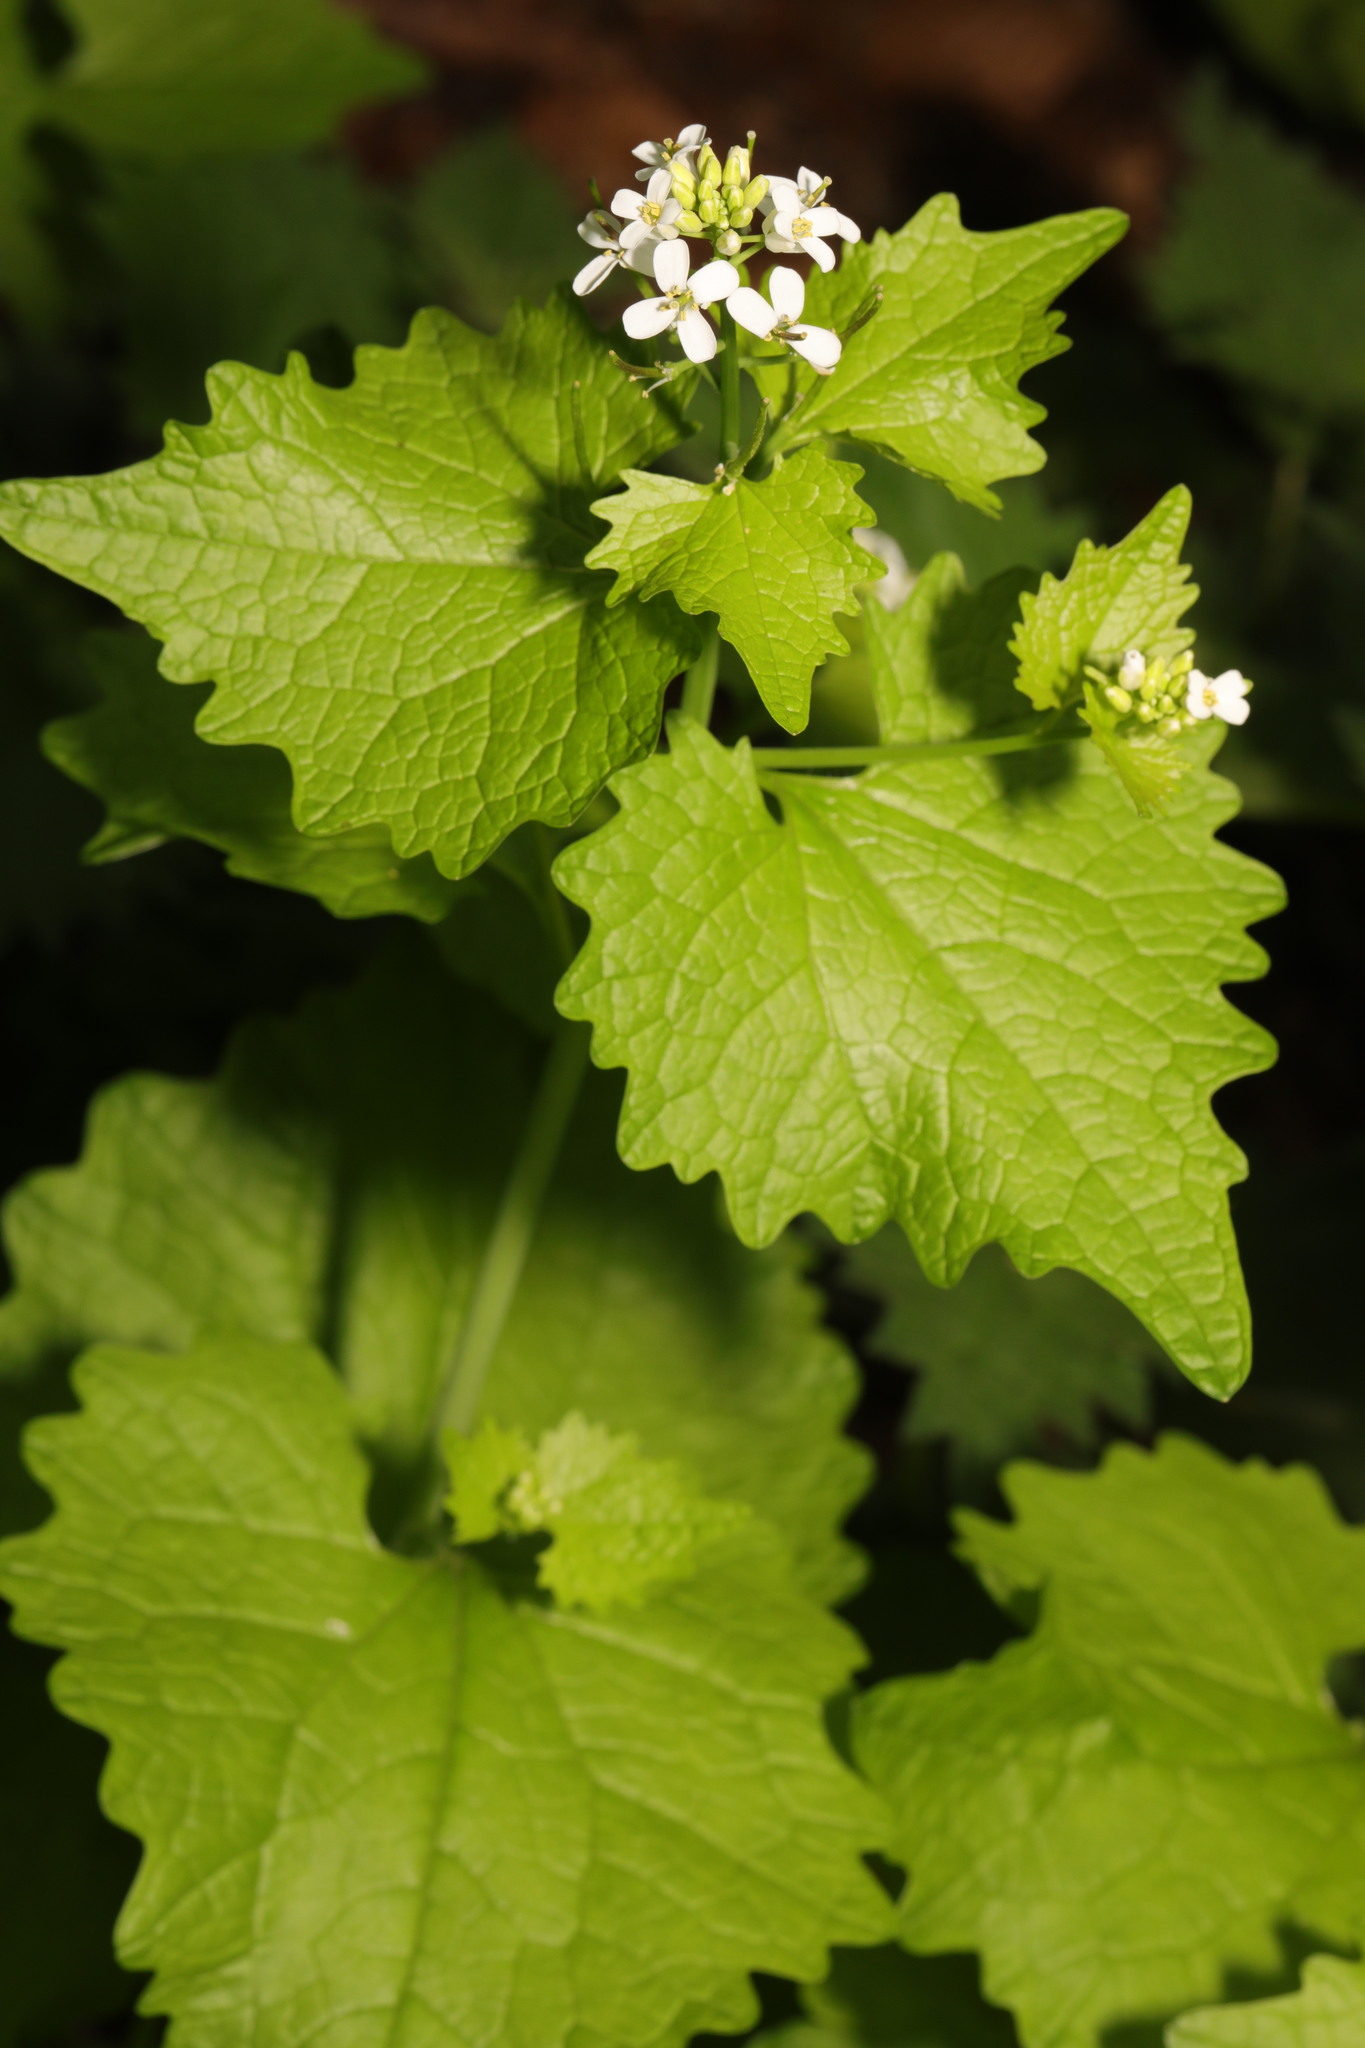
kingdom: Plantae
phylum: Tracheophyta
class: Magnoliopsida
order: Brassicales
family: Brassicaceae
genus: Alliaria
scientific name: Alliaria petiolata
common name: Garlic mustard
